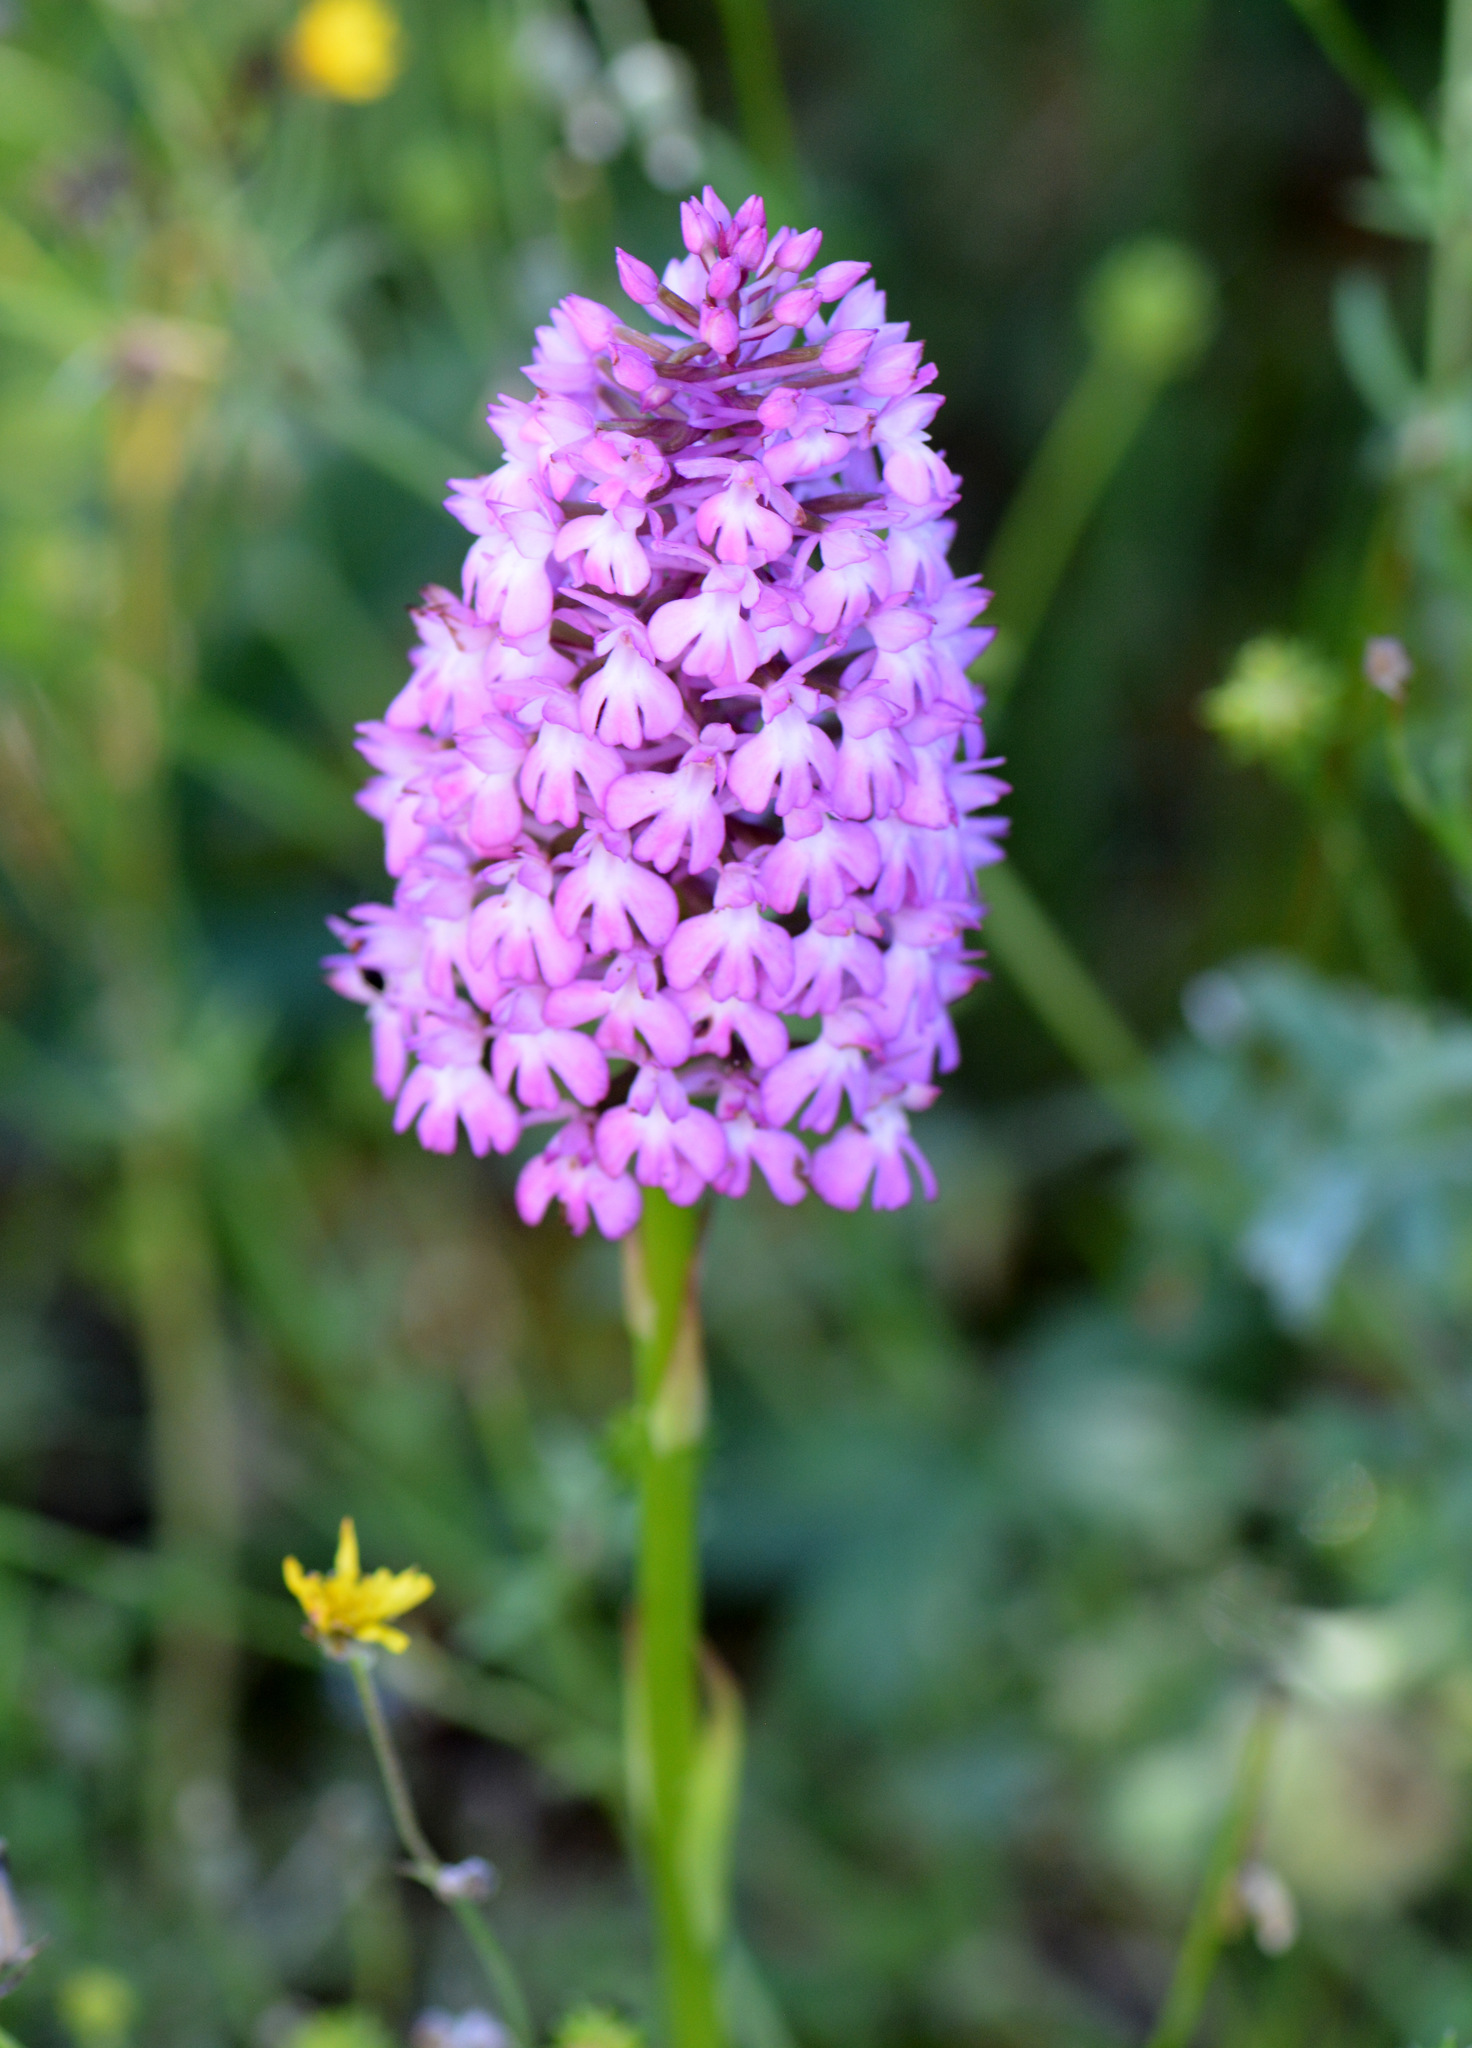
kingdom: Plantae
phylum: Tracheophyta
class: Liliopsida
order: Asparagales
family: Orchidaceae
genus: Anacamptis
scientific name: Anacamptis pyramidalis
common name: Pyramidal orchid
